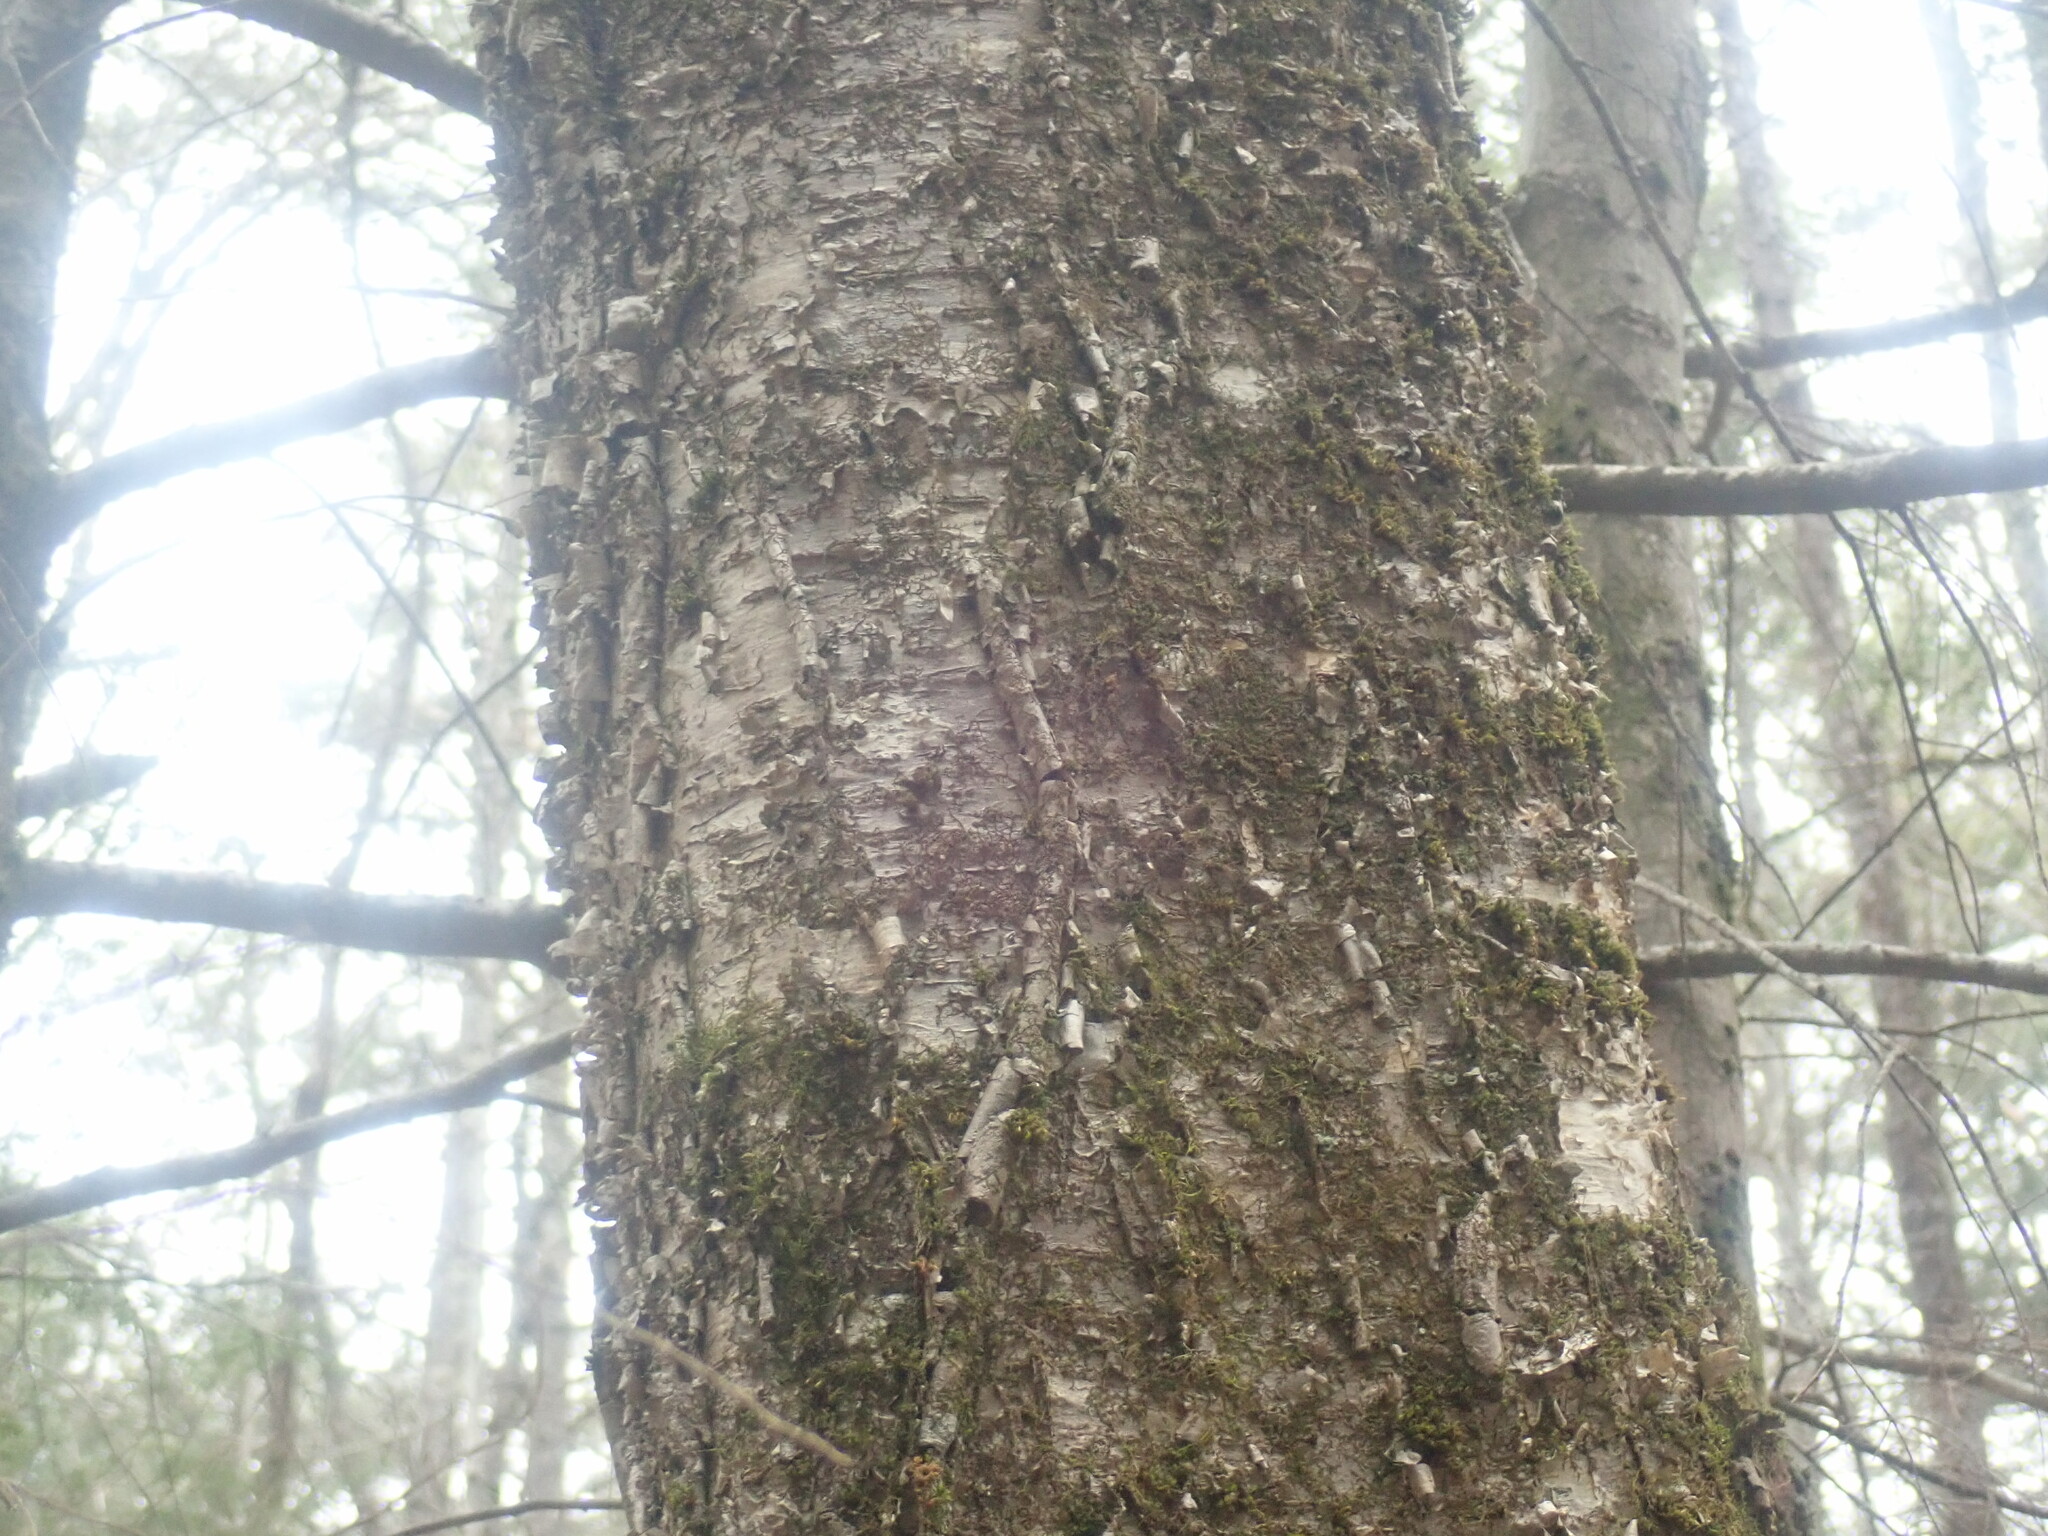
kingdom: Plantae
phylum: Tracheophyta
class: Magnoliopsida
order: Fagales
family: Betulaceae
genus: Betula
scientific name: Betula alleghaniensis
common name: Yellow birch
